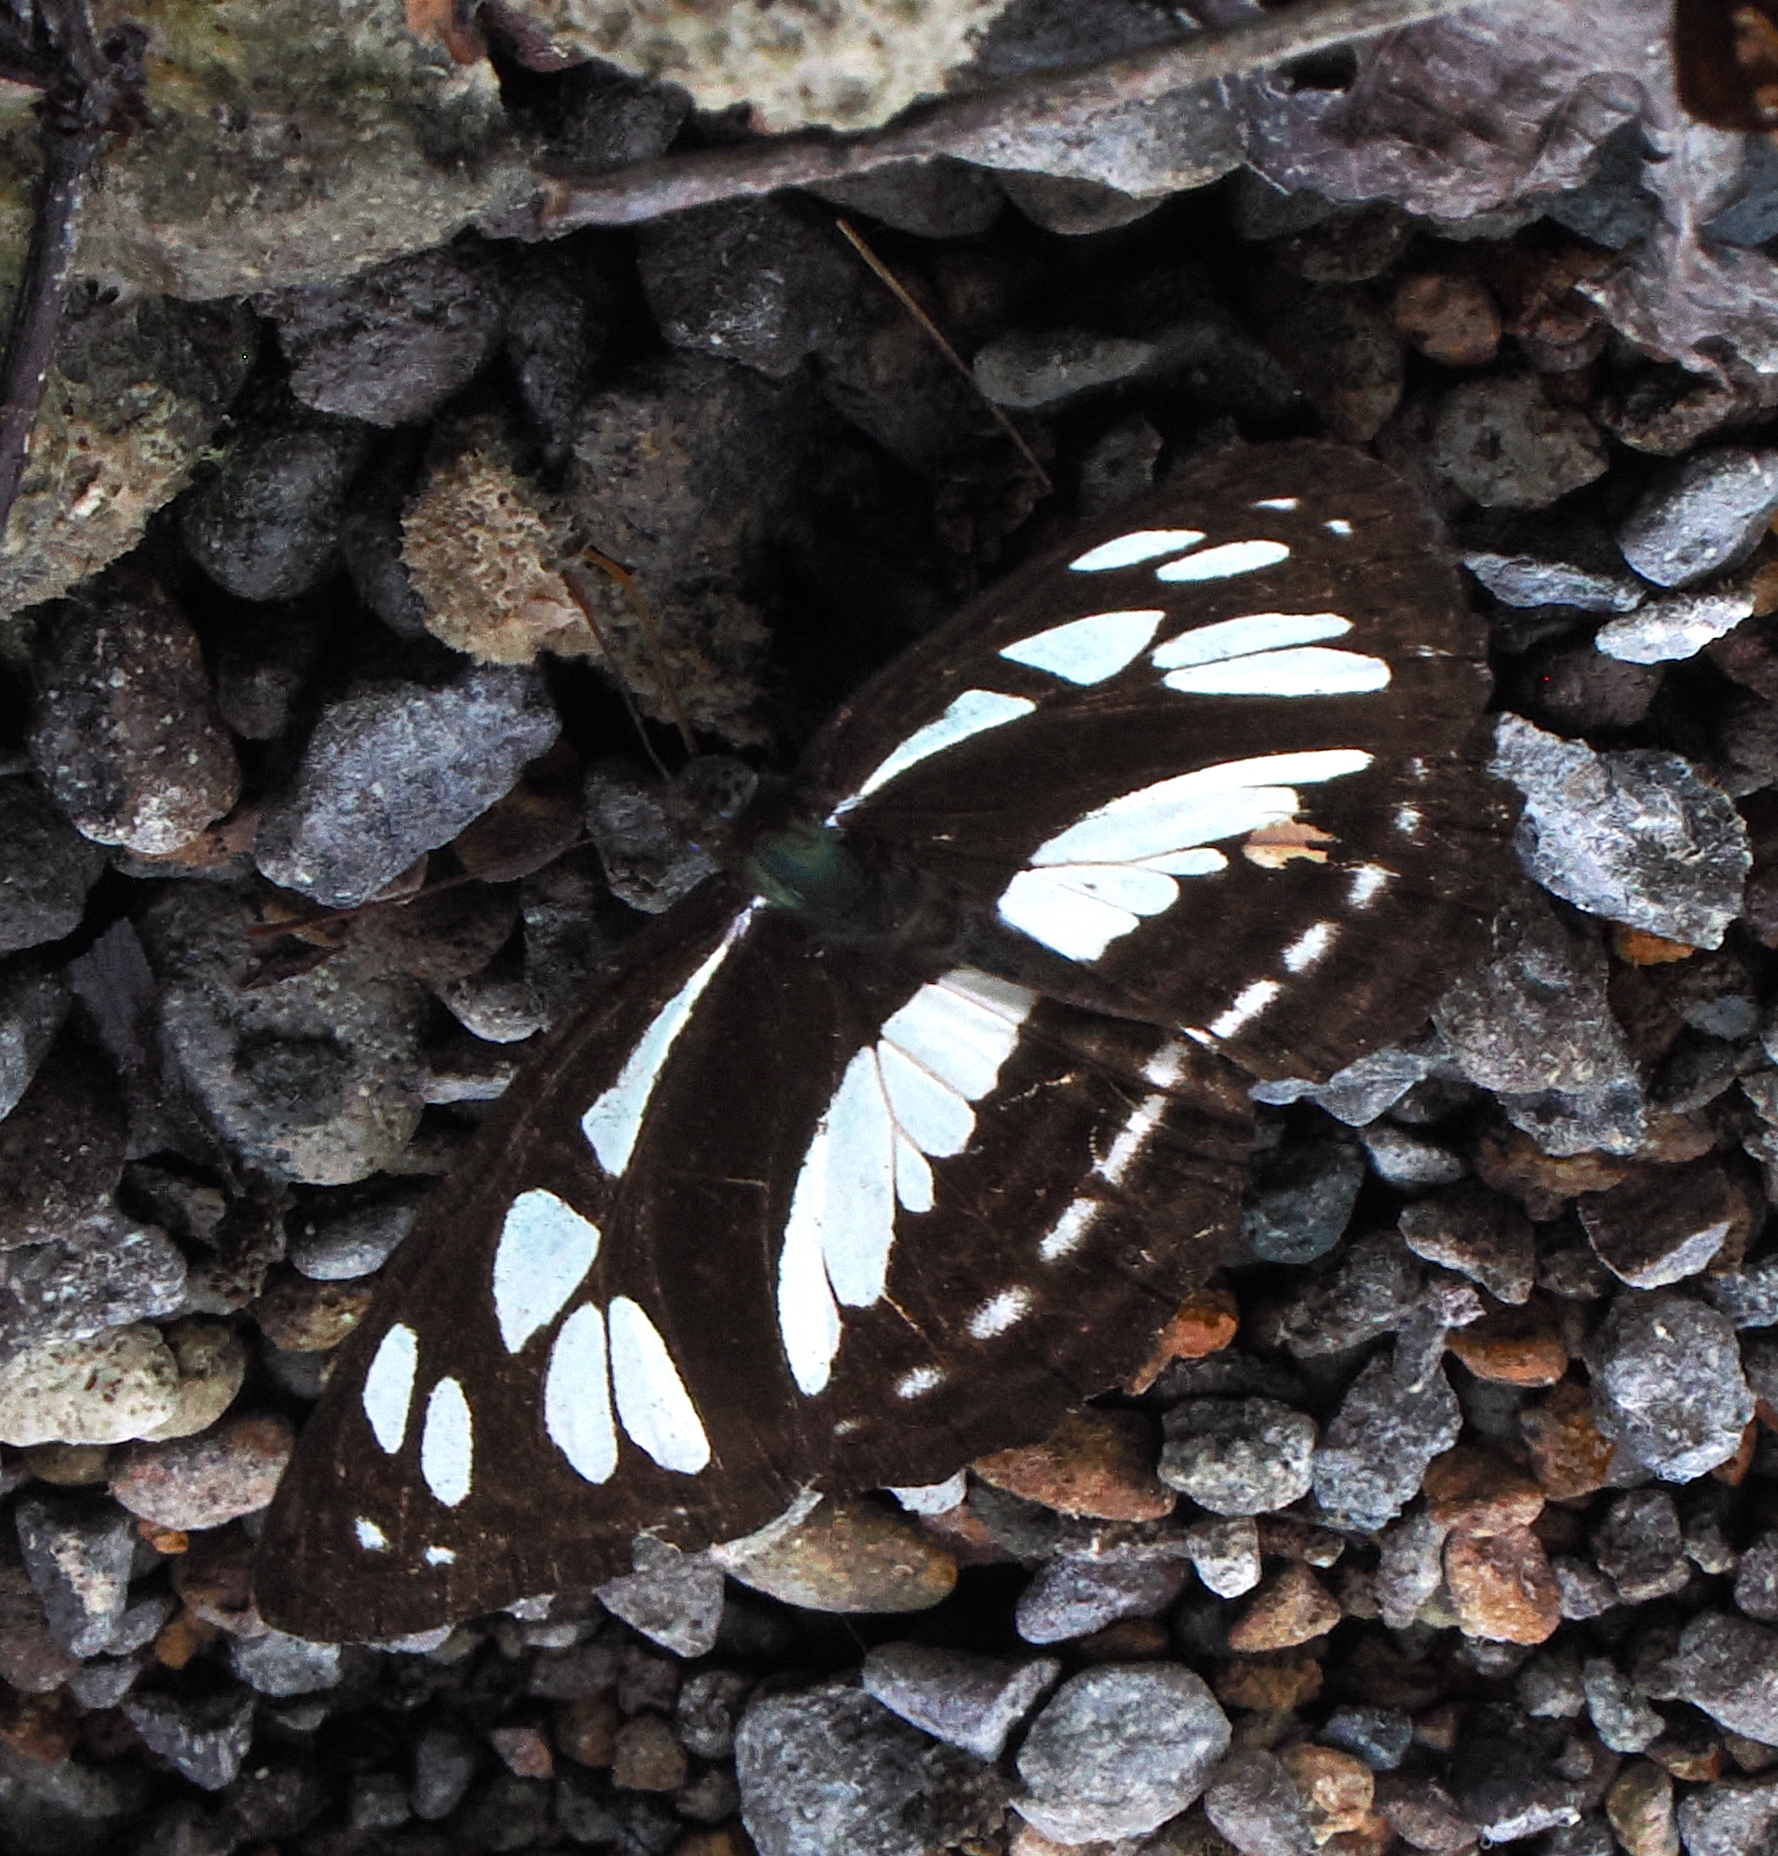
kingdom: Animalia
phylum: Arthropoda
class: Insecta
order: Lepidoptera
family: Nymphalidae
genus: Phaedyma
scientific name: Phaedyma columella
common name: Short banded sailer
